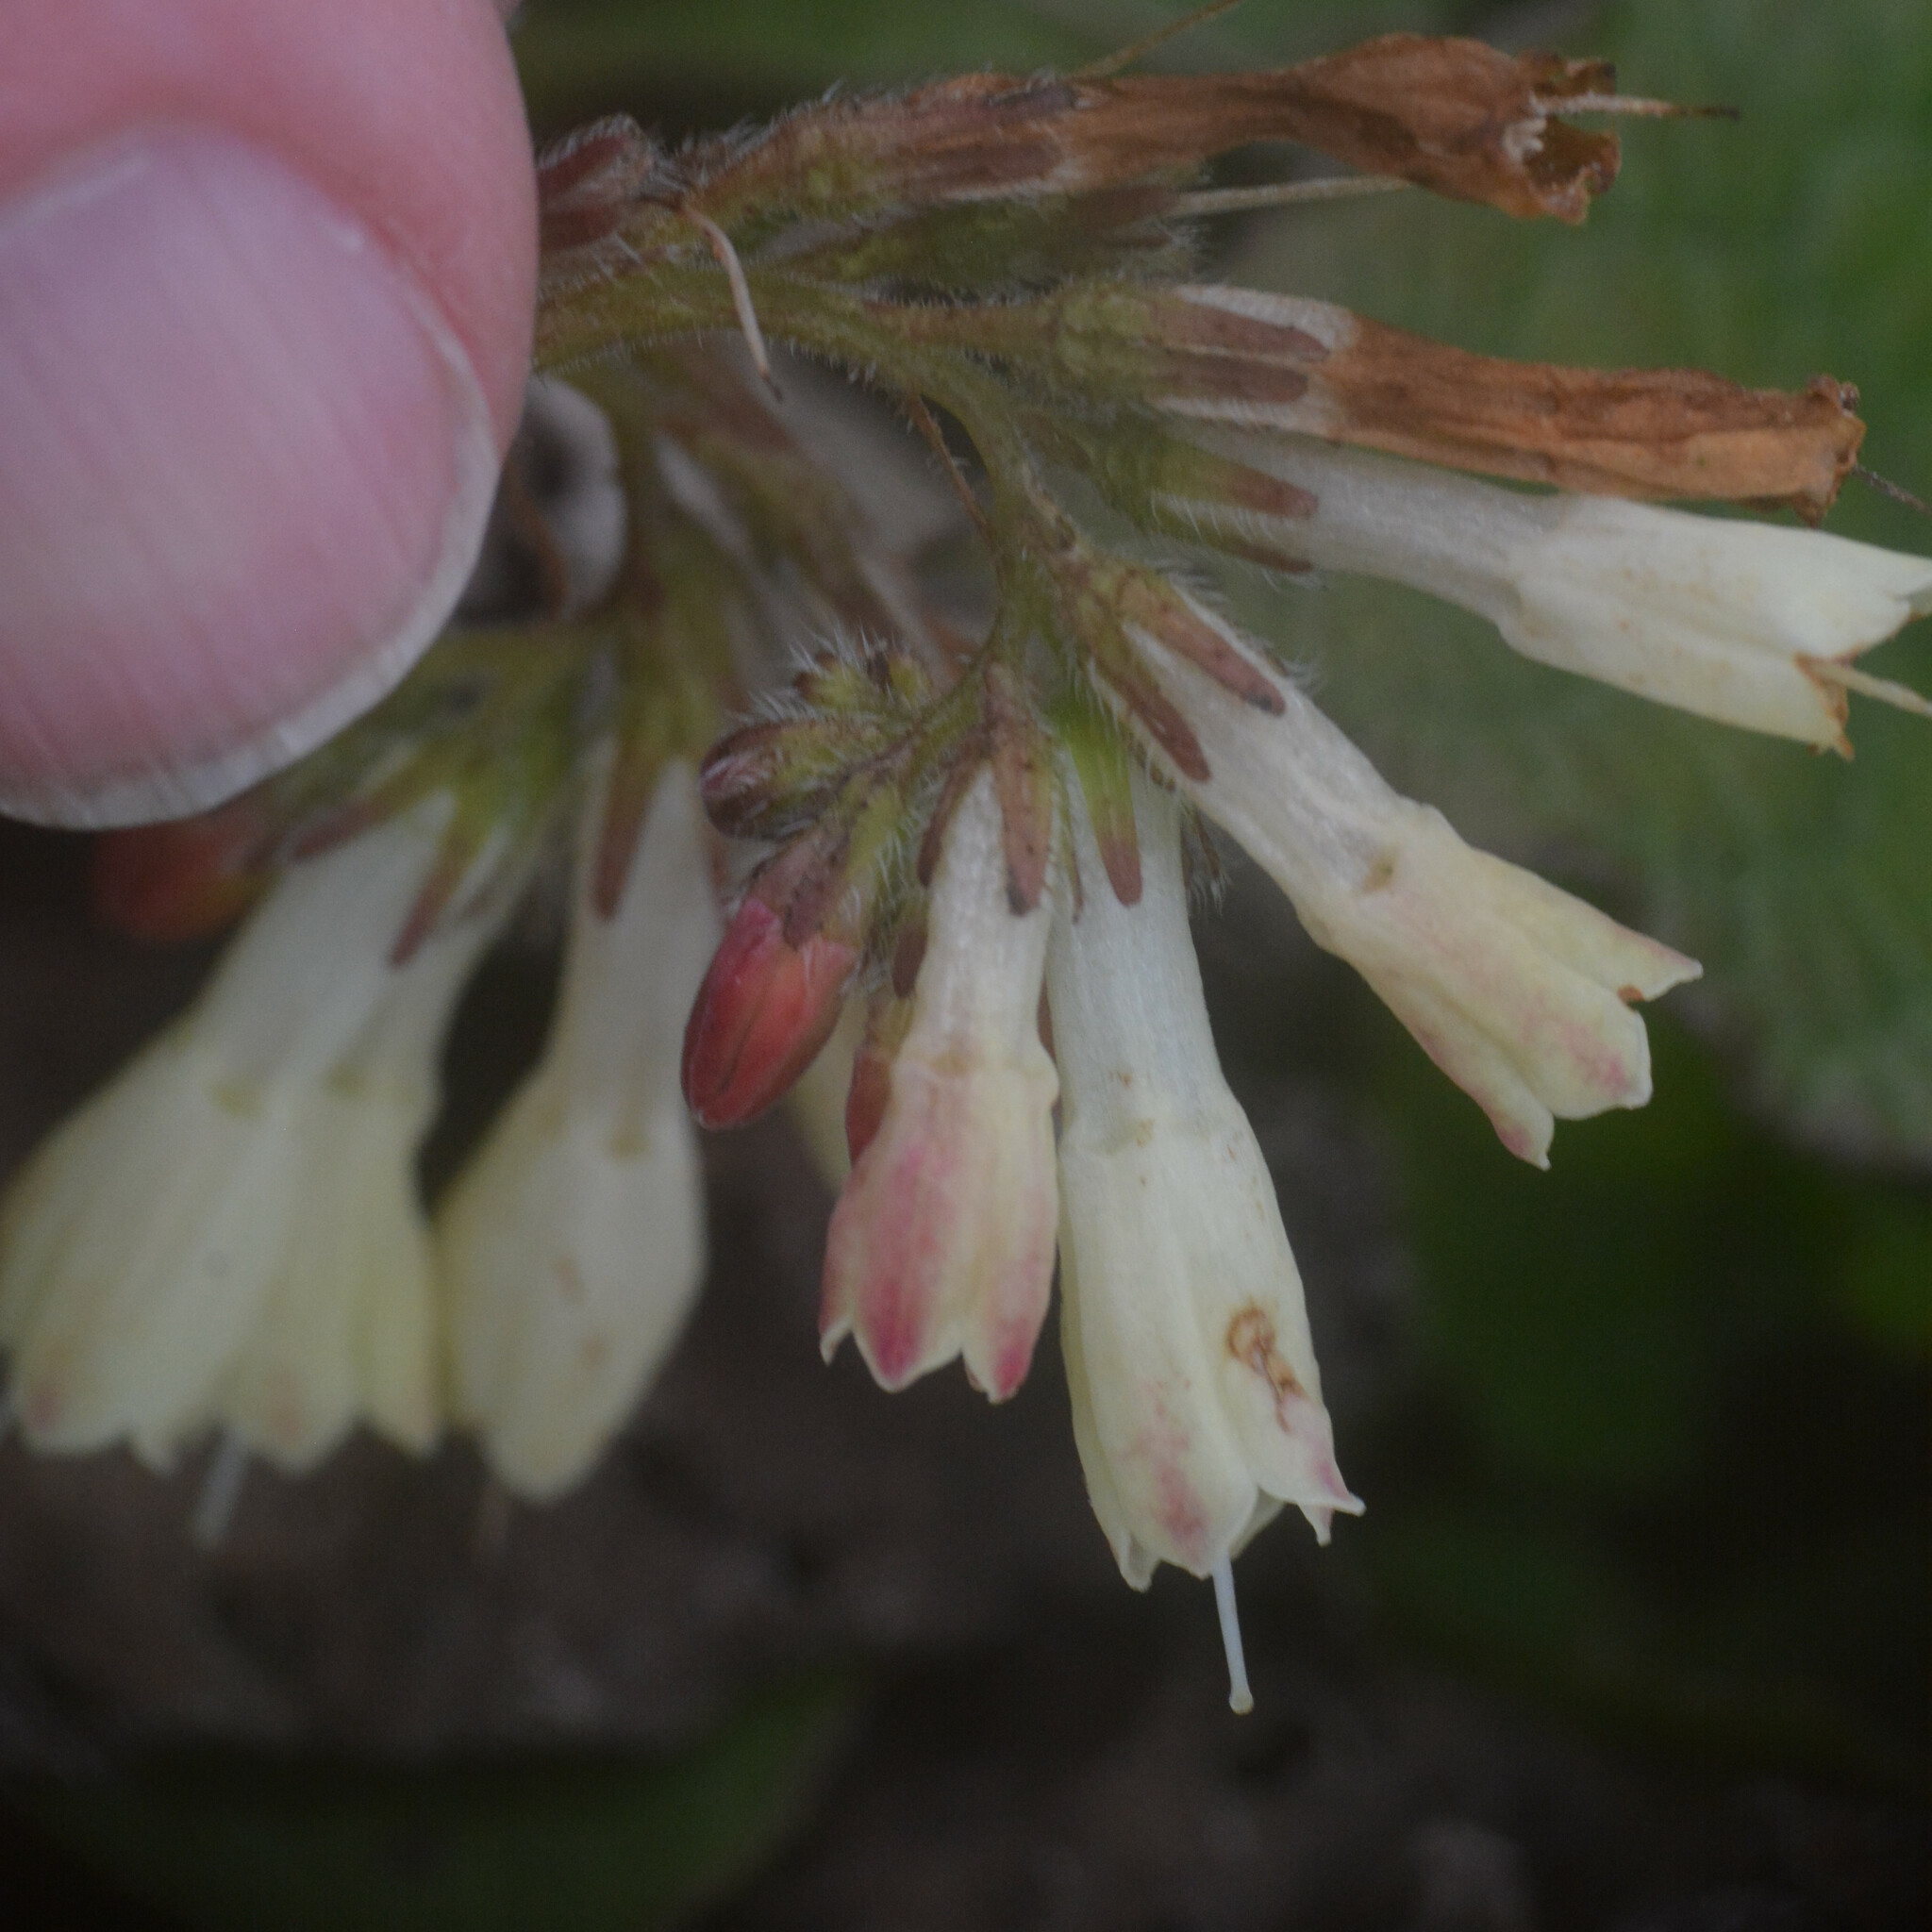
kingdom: Plantae
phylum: Tracheophyta
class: Magnoliopsida
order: Boraginales
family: Boraginaceae
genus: Symphytum
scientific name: Symphytum grandiflorum
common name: Creeping comfrey
